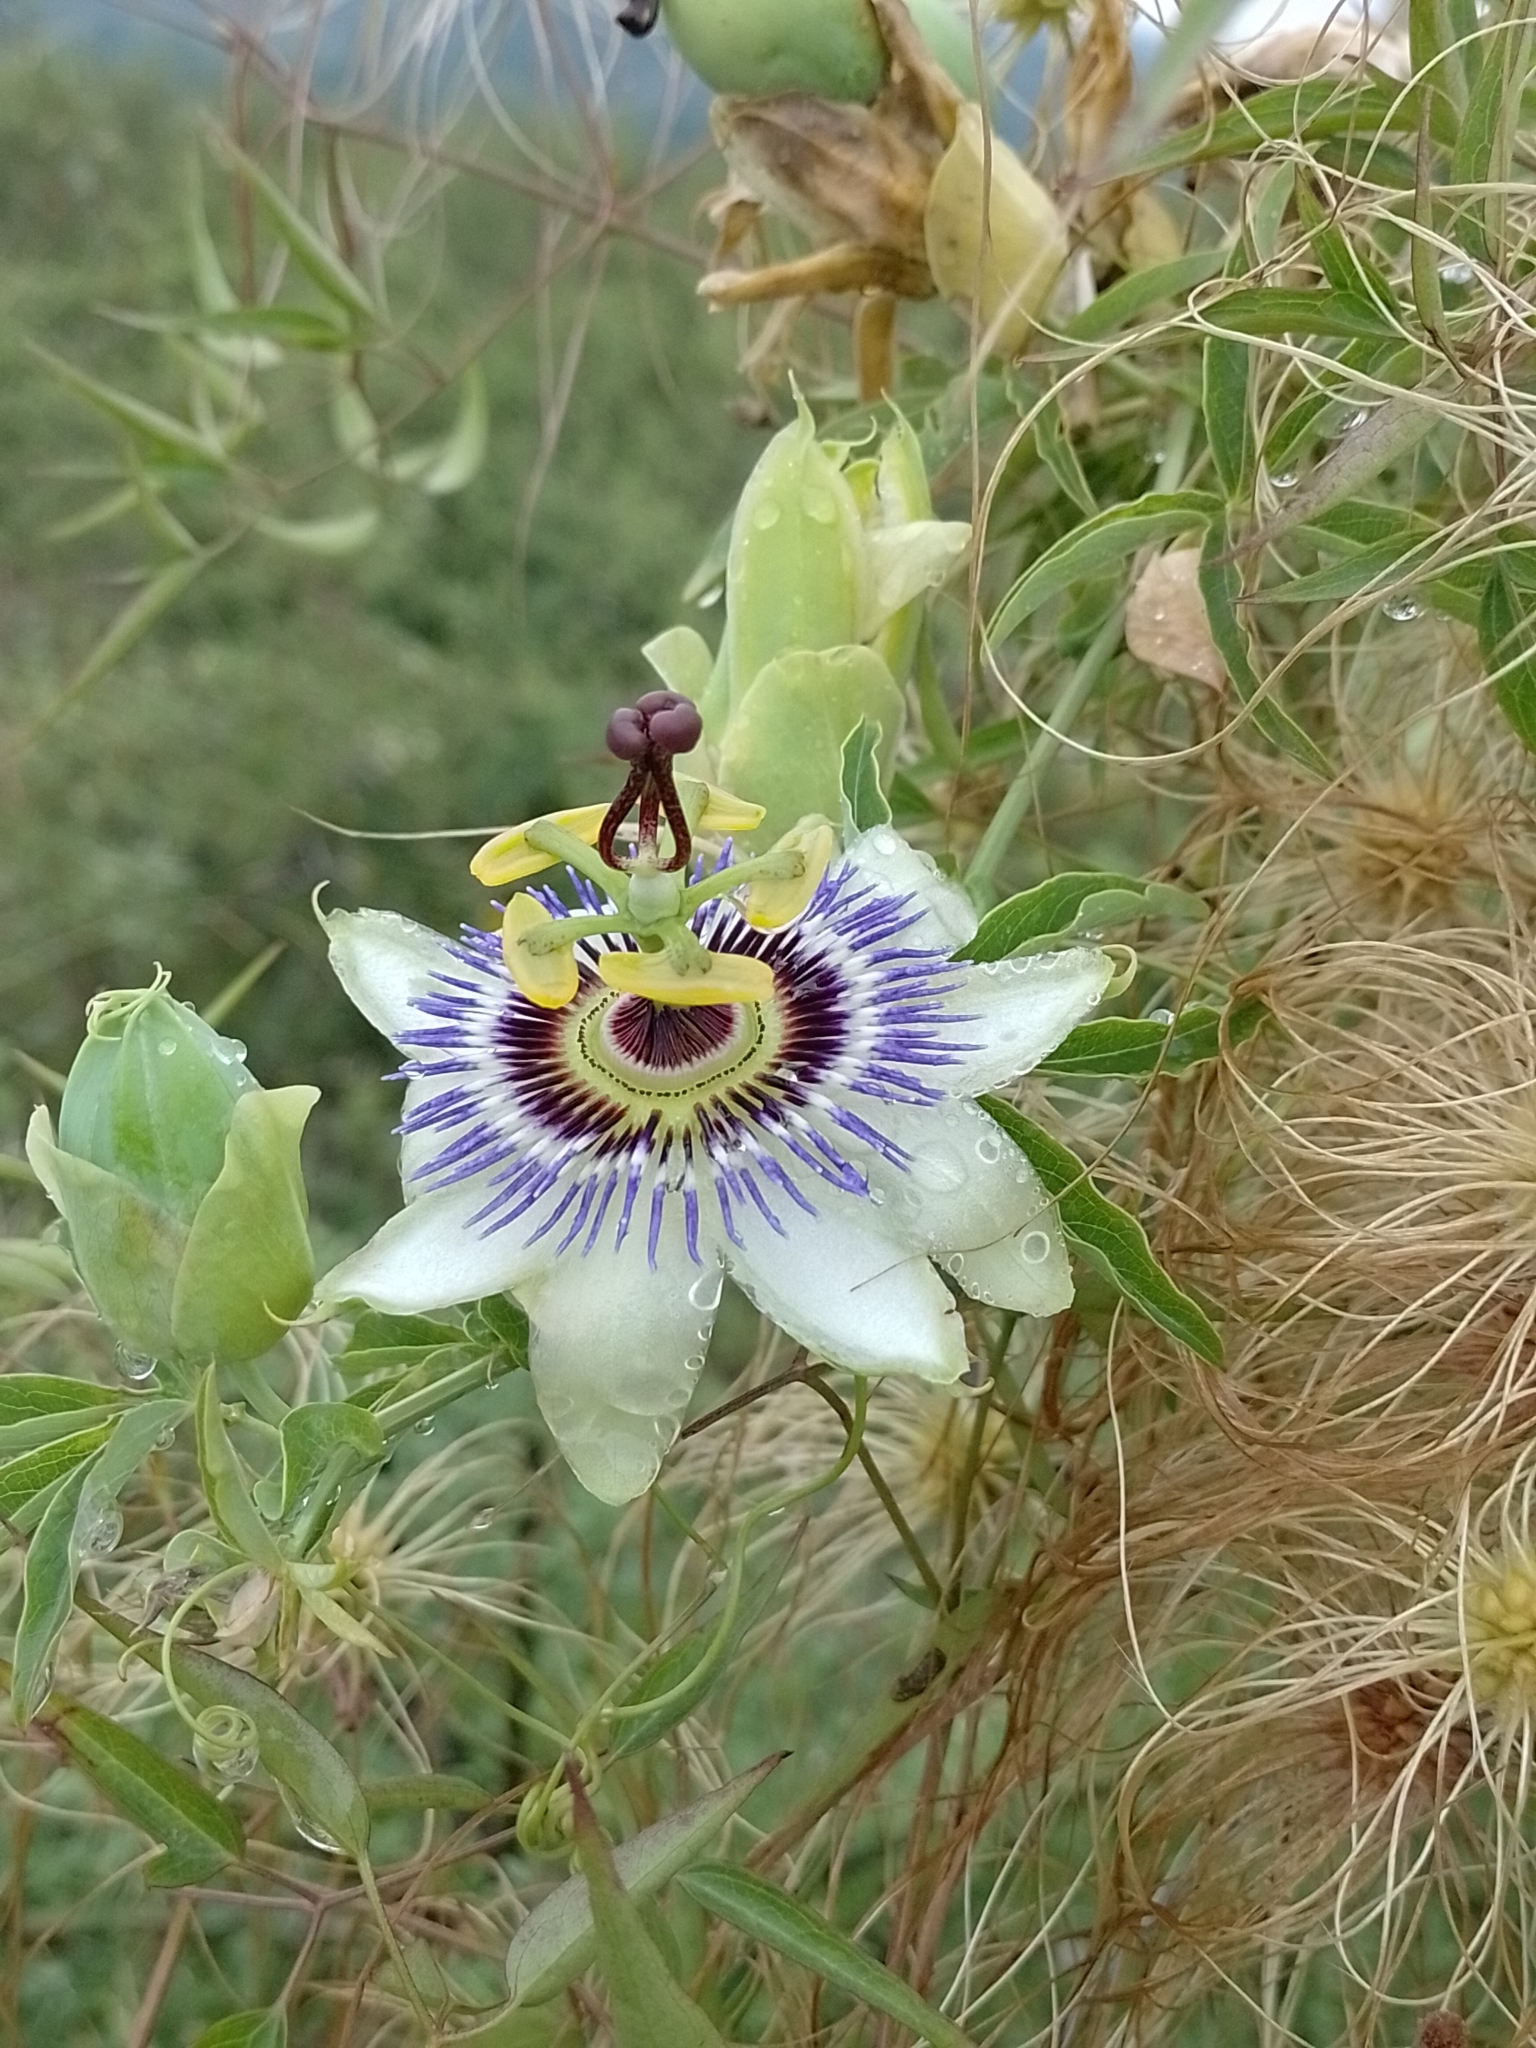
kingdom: Plantae
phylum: Tracheophyta
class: Magnoliopsida
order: Malpighiales
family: Passifloraceae
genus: Passiflora
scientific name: Passiflora caerulea
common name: Blue passionflower
